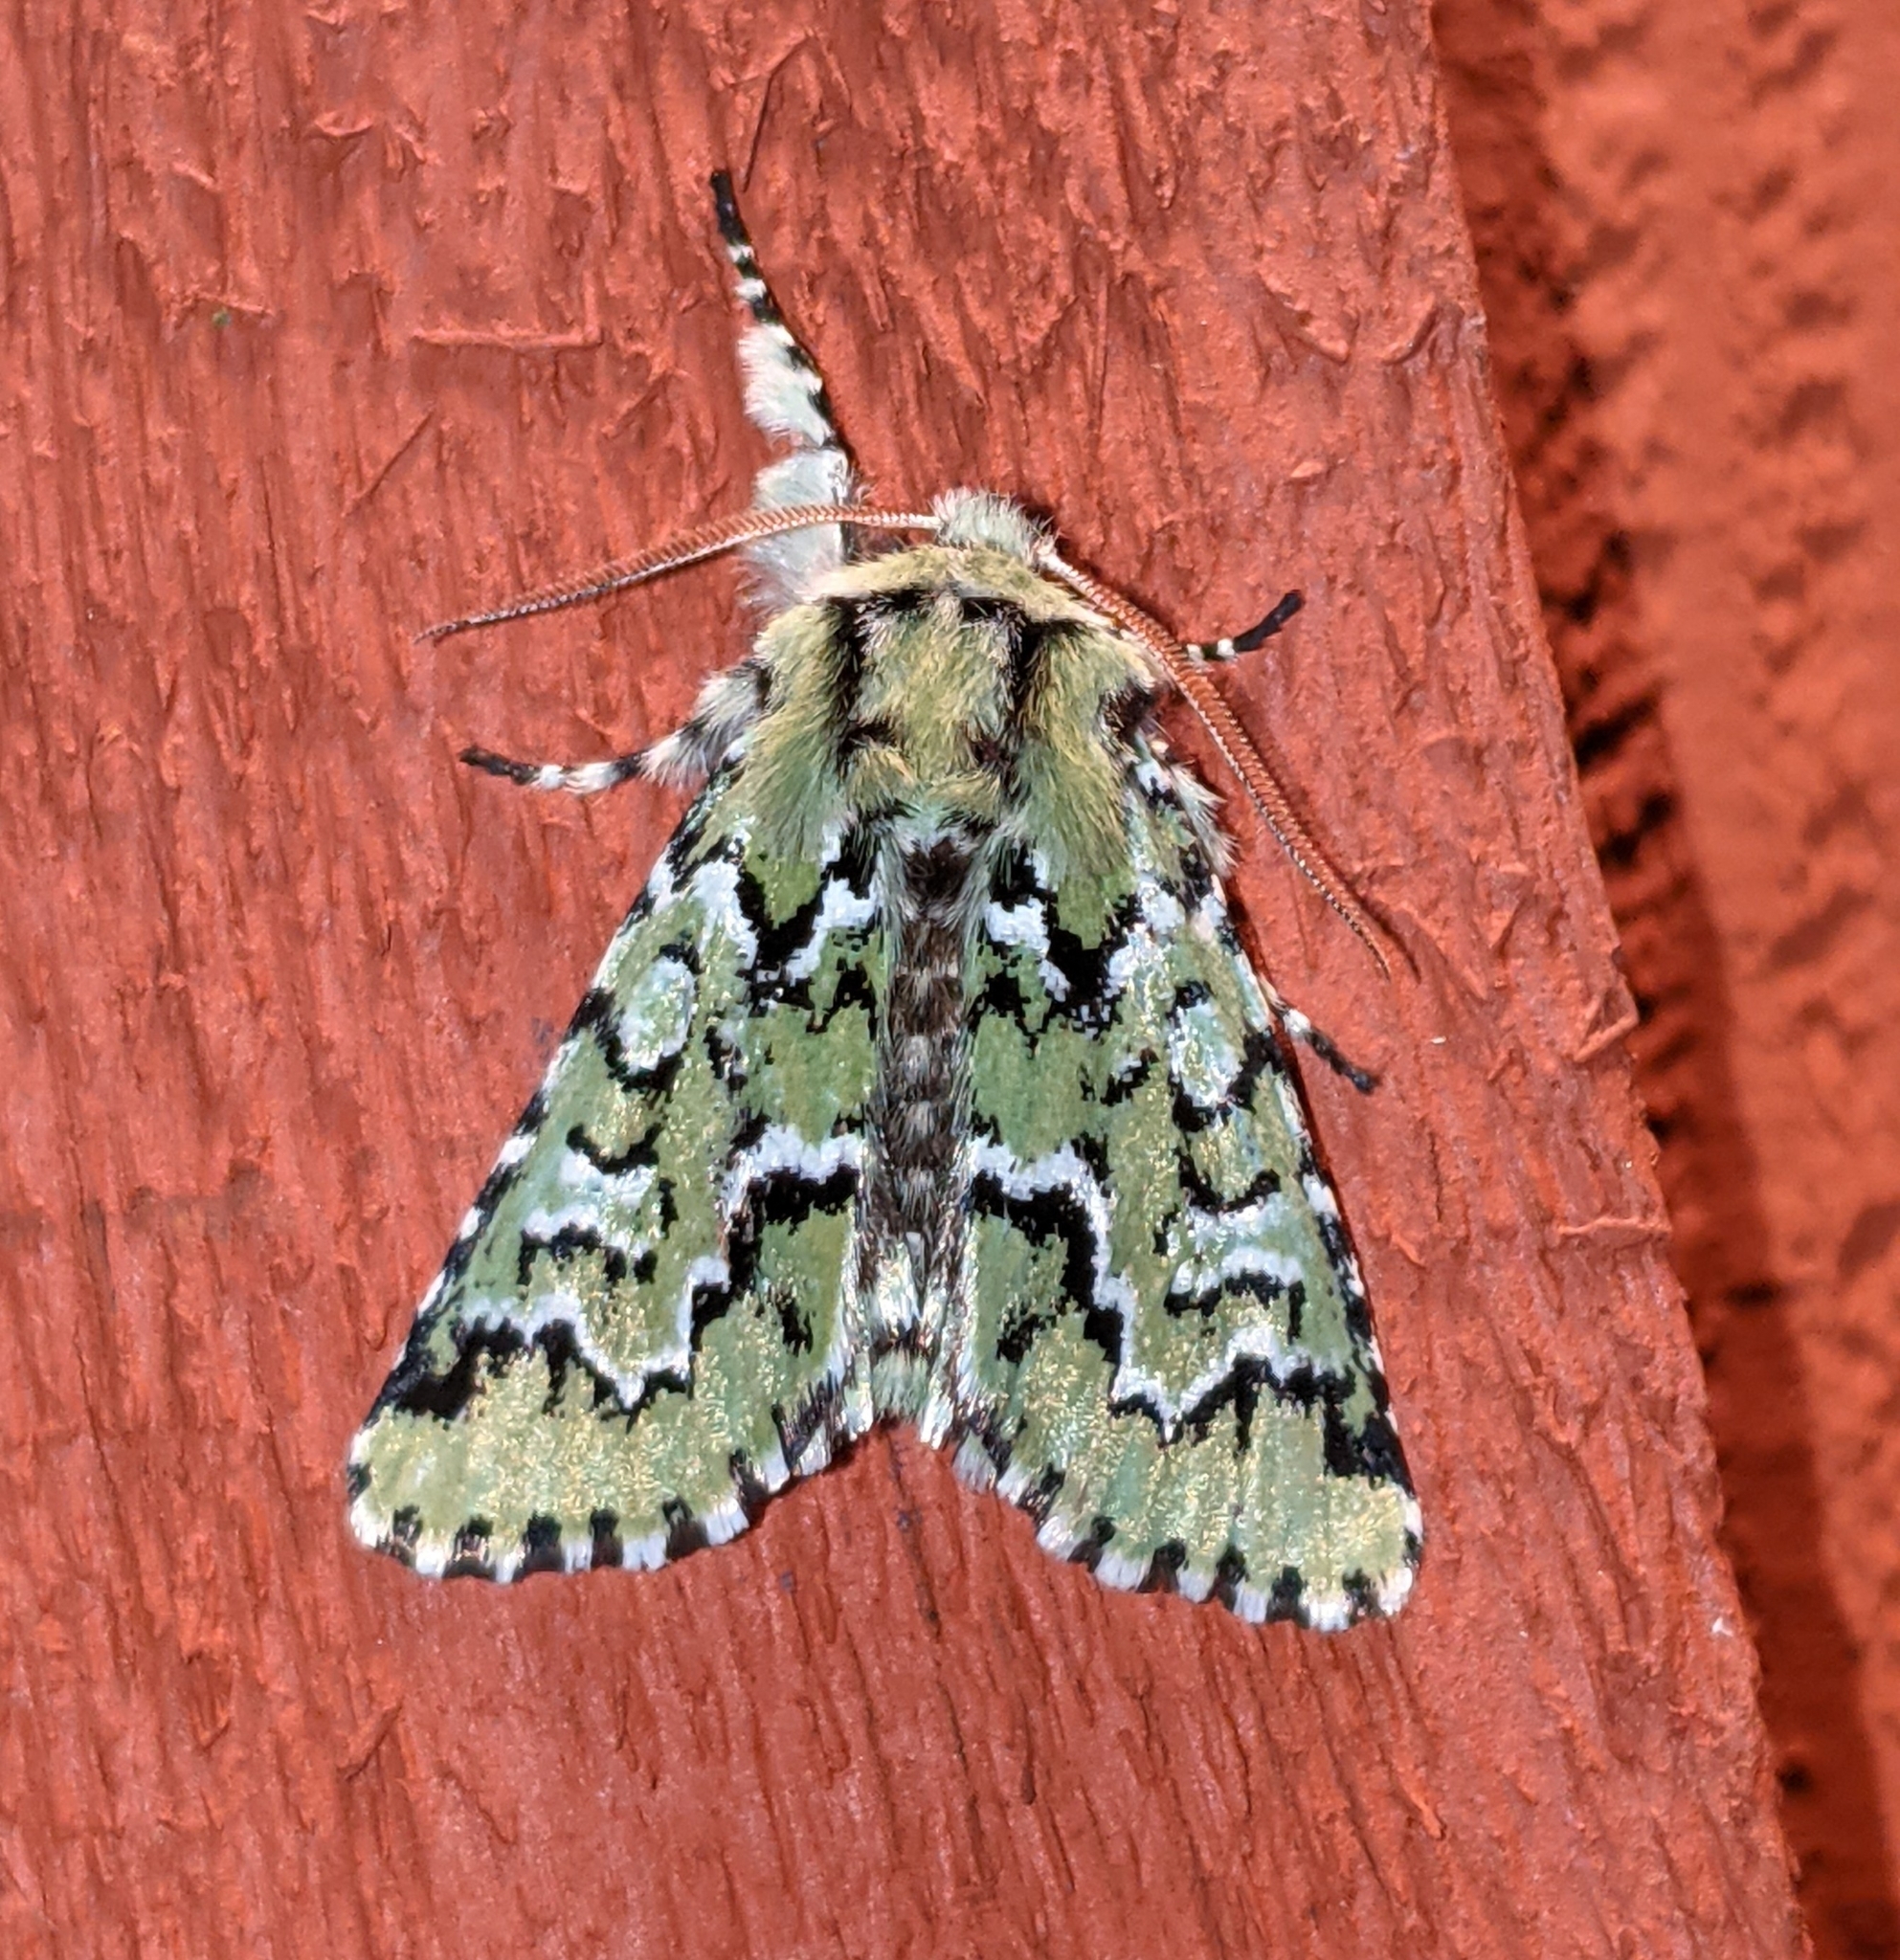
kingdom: Animalia
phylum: Arthropoda
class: Insecta
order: Lepidoptera
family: Noctuidae
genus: Feralia
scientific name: Feralia deceptiva
